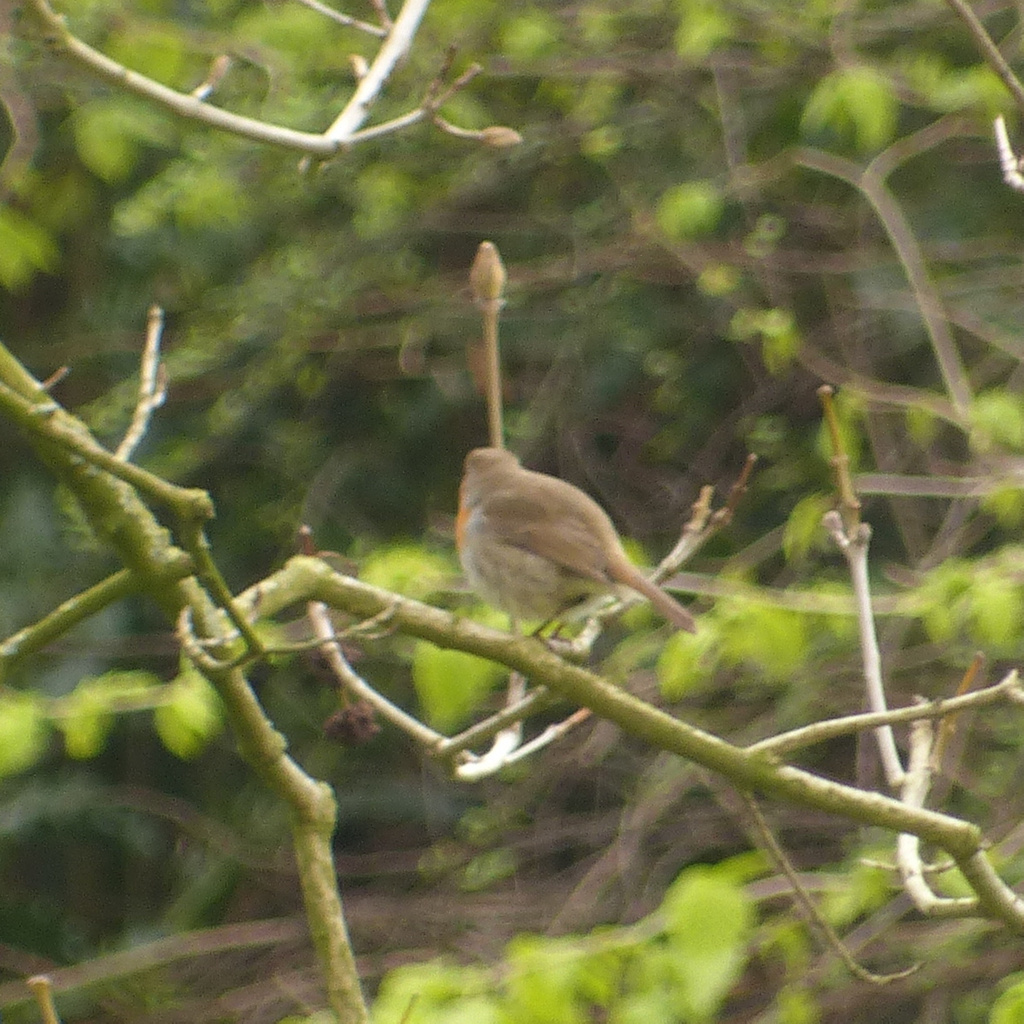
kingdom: Animalia
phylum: Chordata
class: Aves
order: Passeriformes
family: Muscicapidae
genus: Erithacus
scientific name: Erithacus rubecula
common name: European robin
